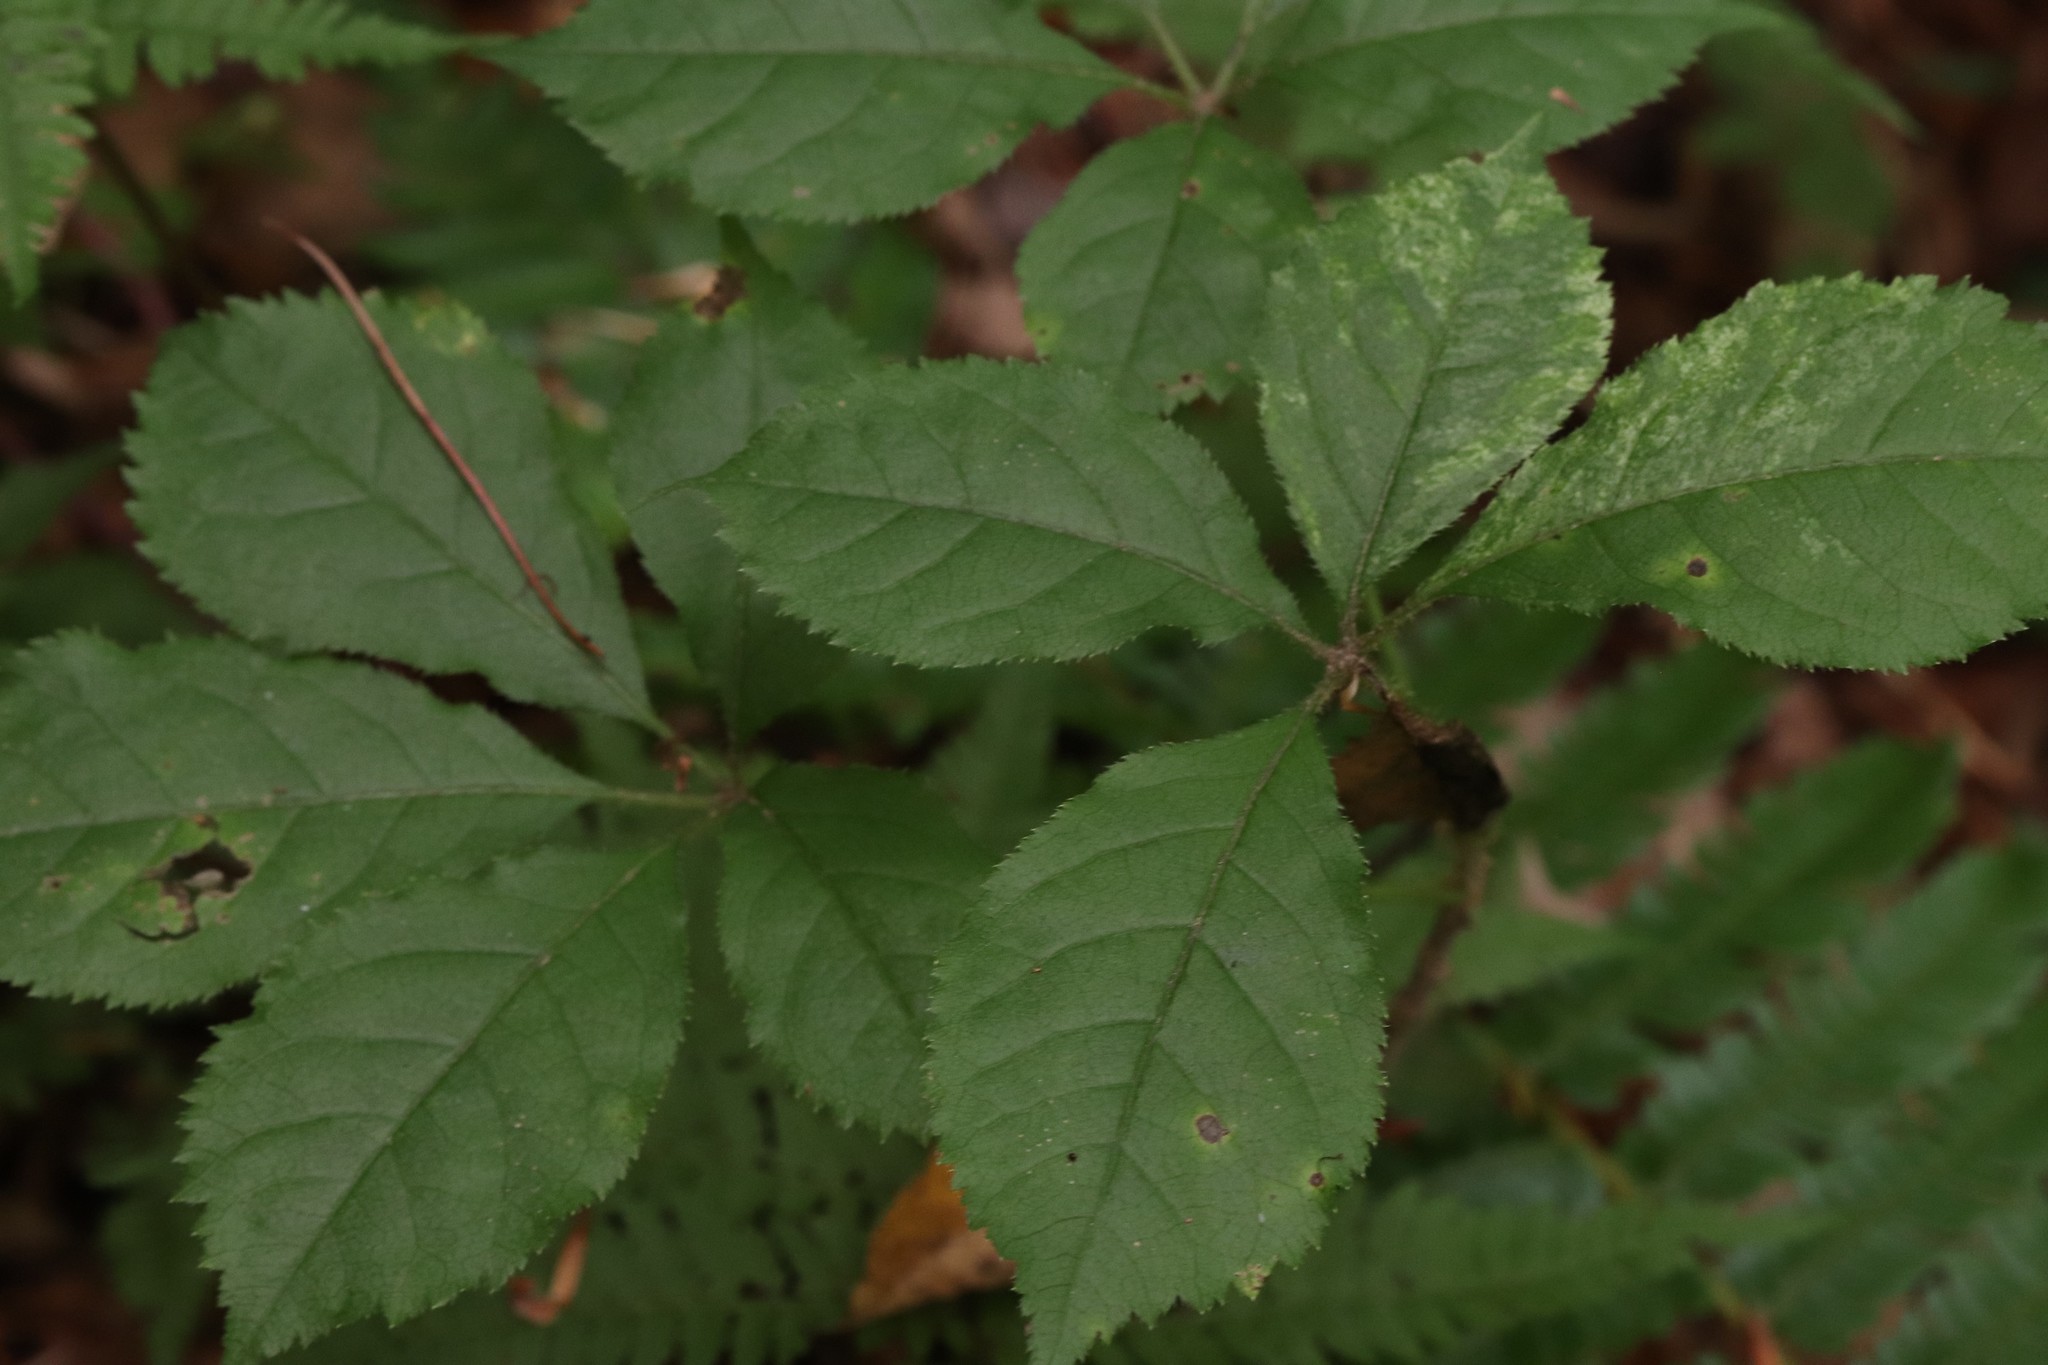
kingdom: Plantae
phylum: Tracheophyta
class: Magnoliopsida
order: Apiales
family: Araliaceae
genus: Eleutherococcus
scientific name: Eleutherococcus senticosus
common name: Siberian-ginseng
